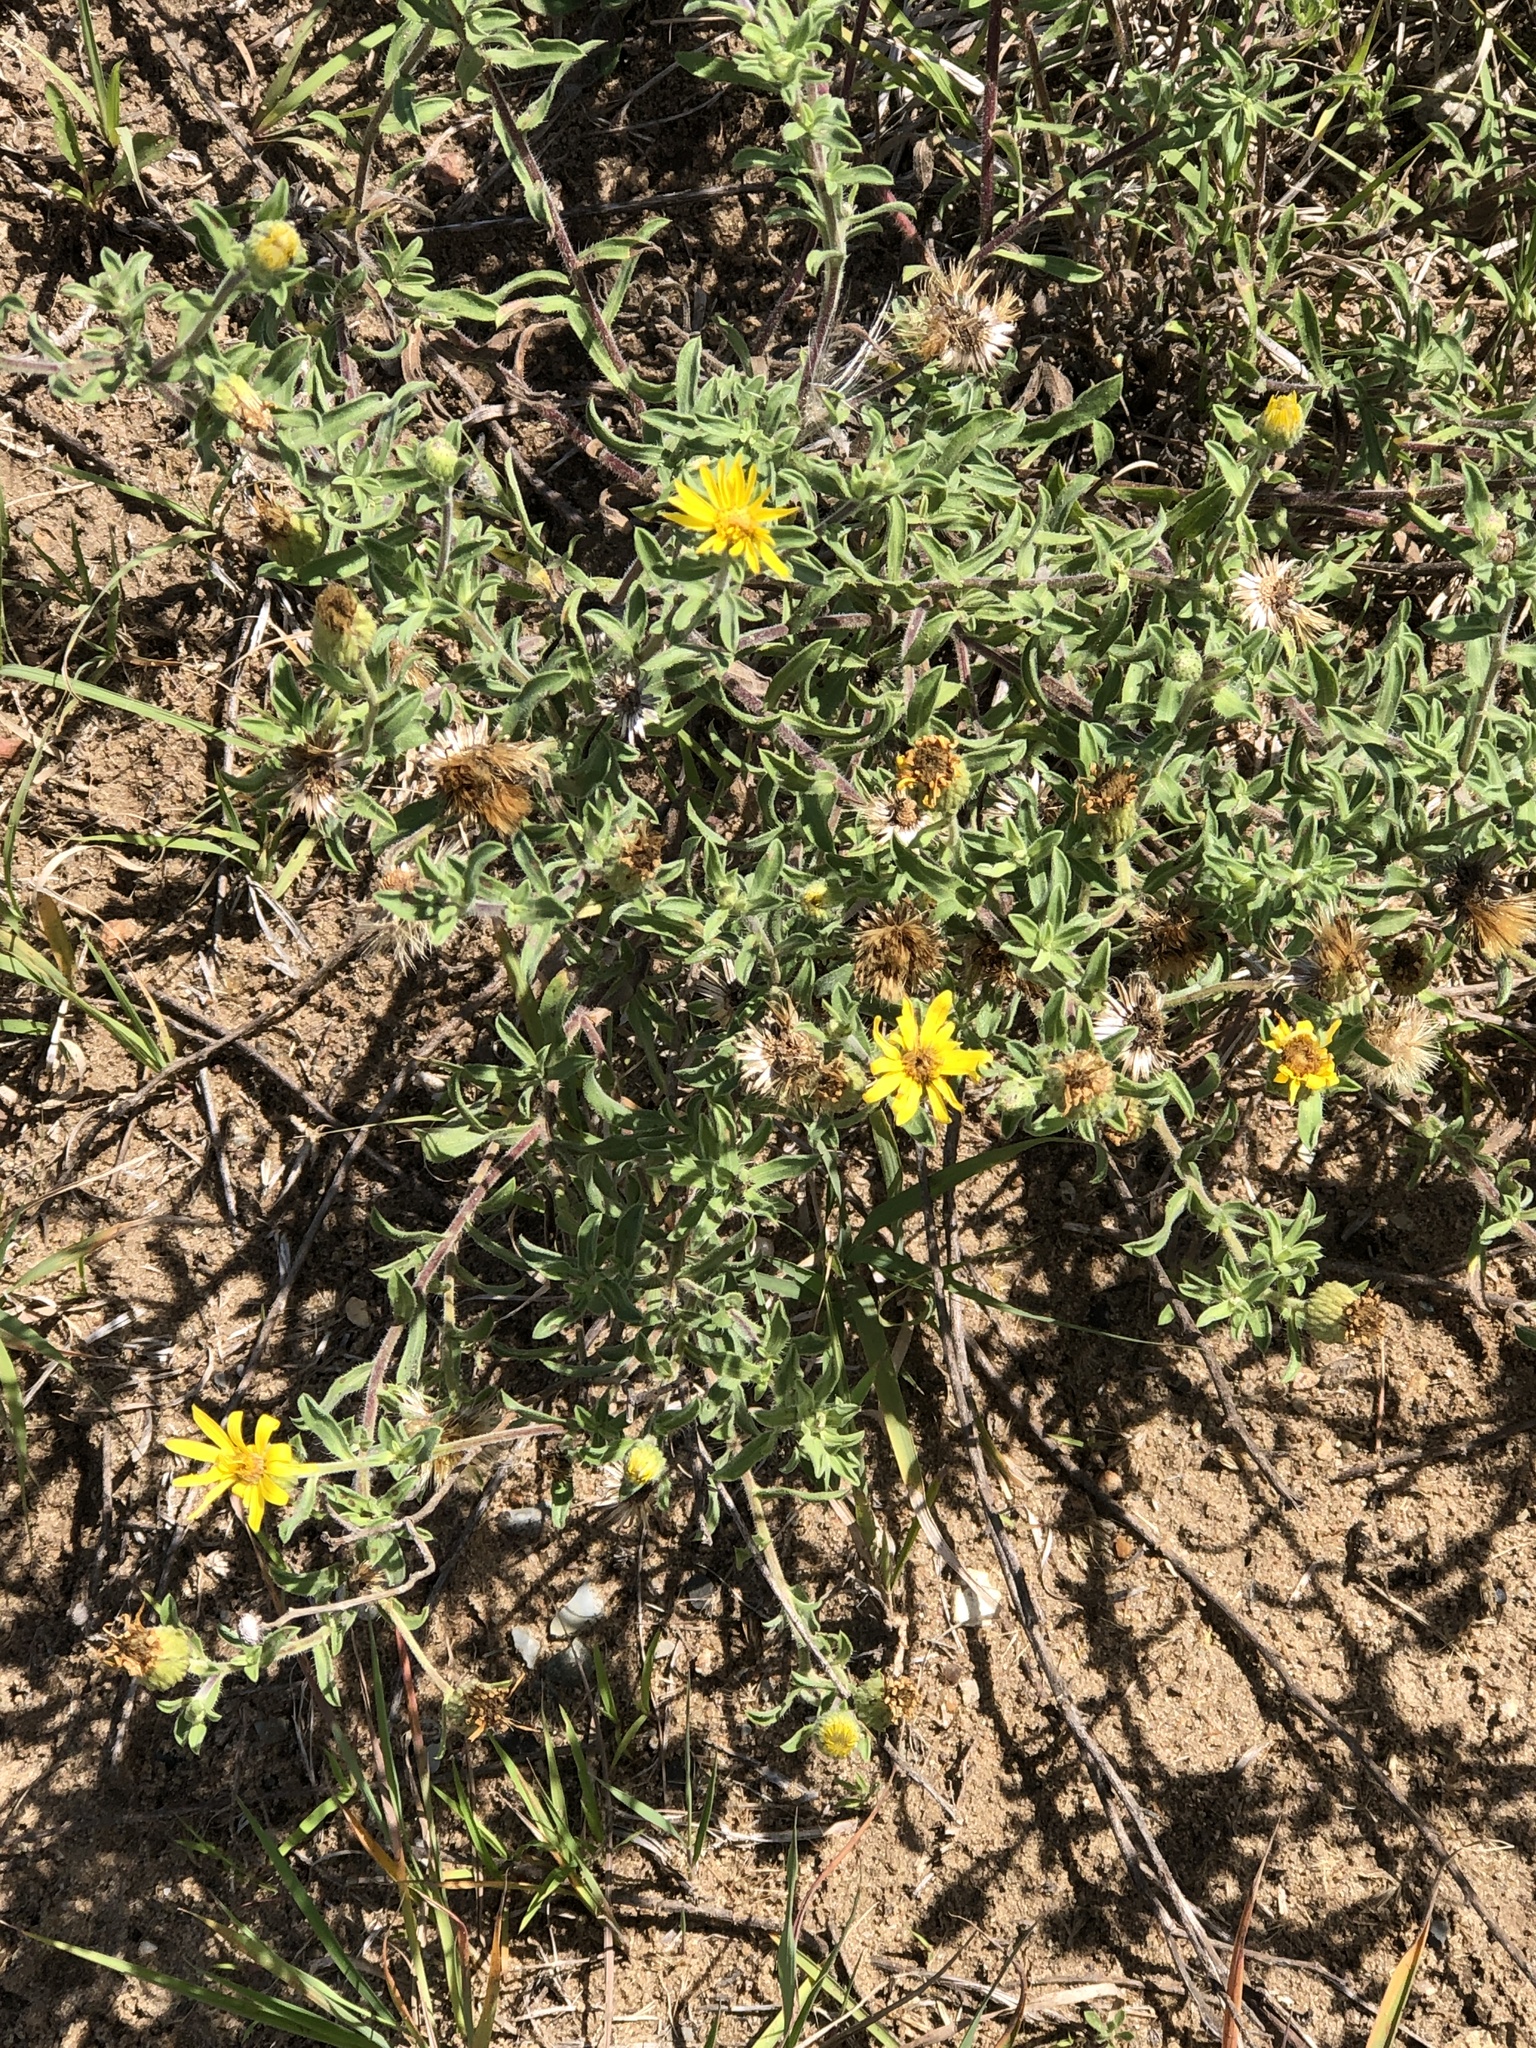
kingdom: Plantae
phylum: Tracheophyta
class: Magnoliopsida
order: Asterales
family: Asteraceae
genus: Heterotheca
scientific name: Heterotheca villosa
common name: Hairy false goldenaster
